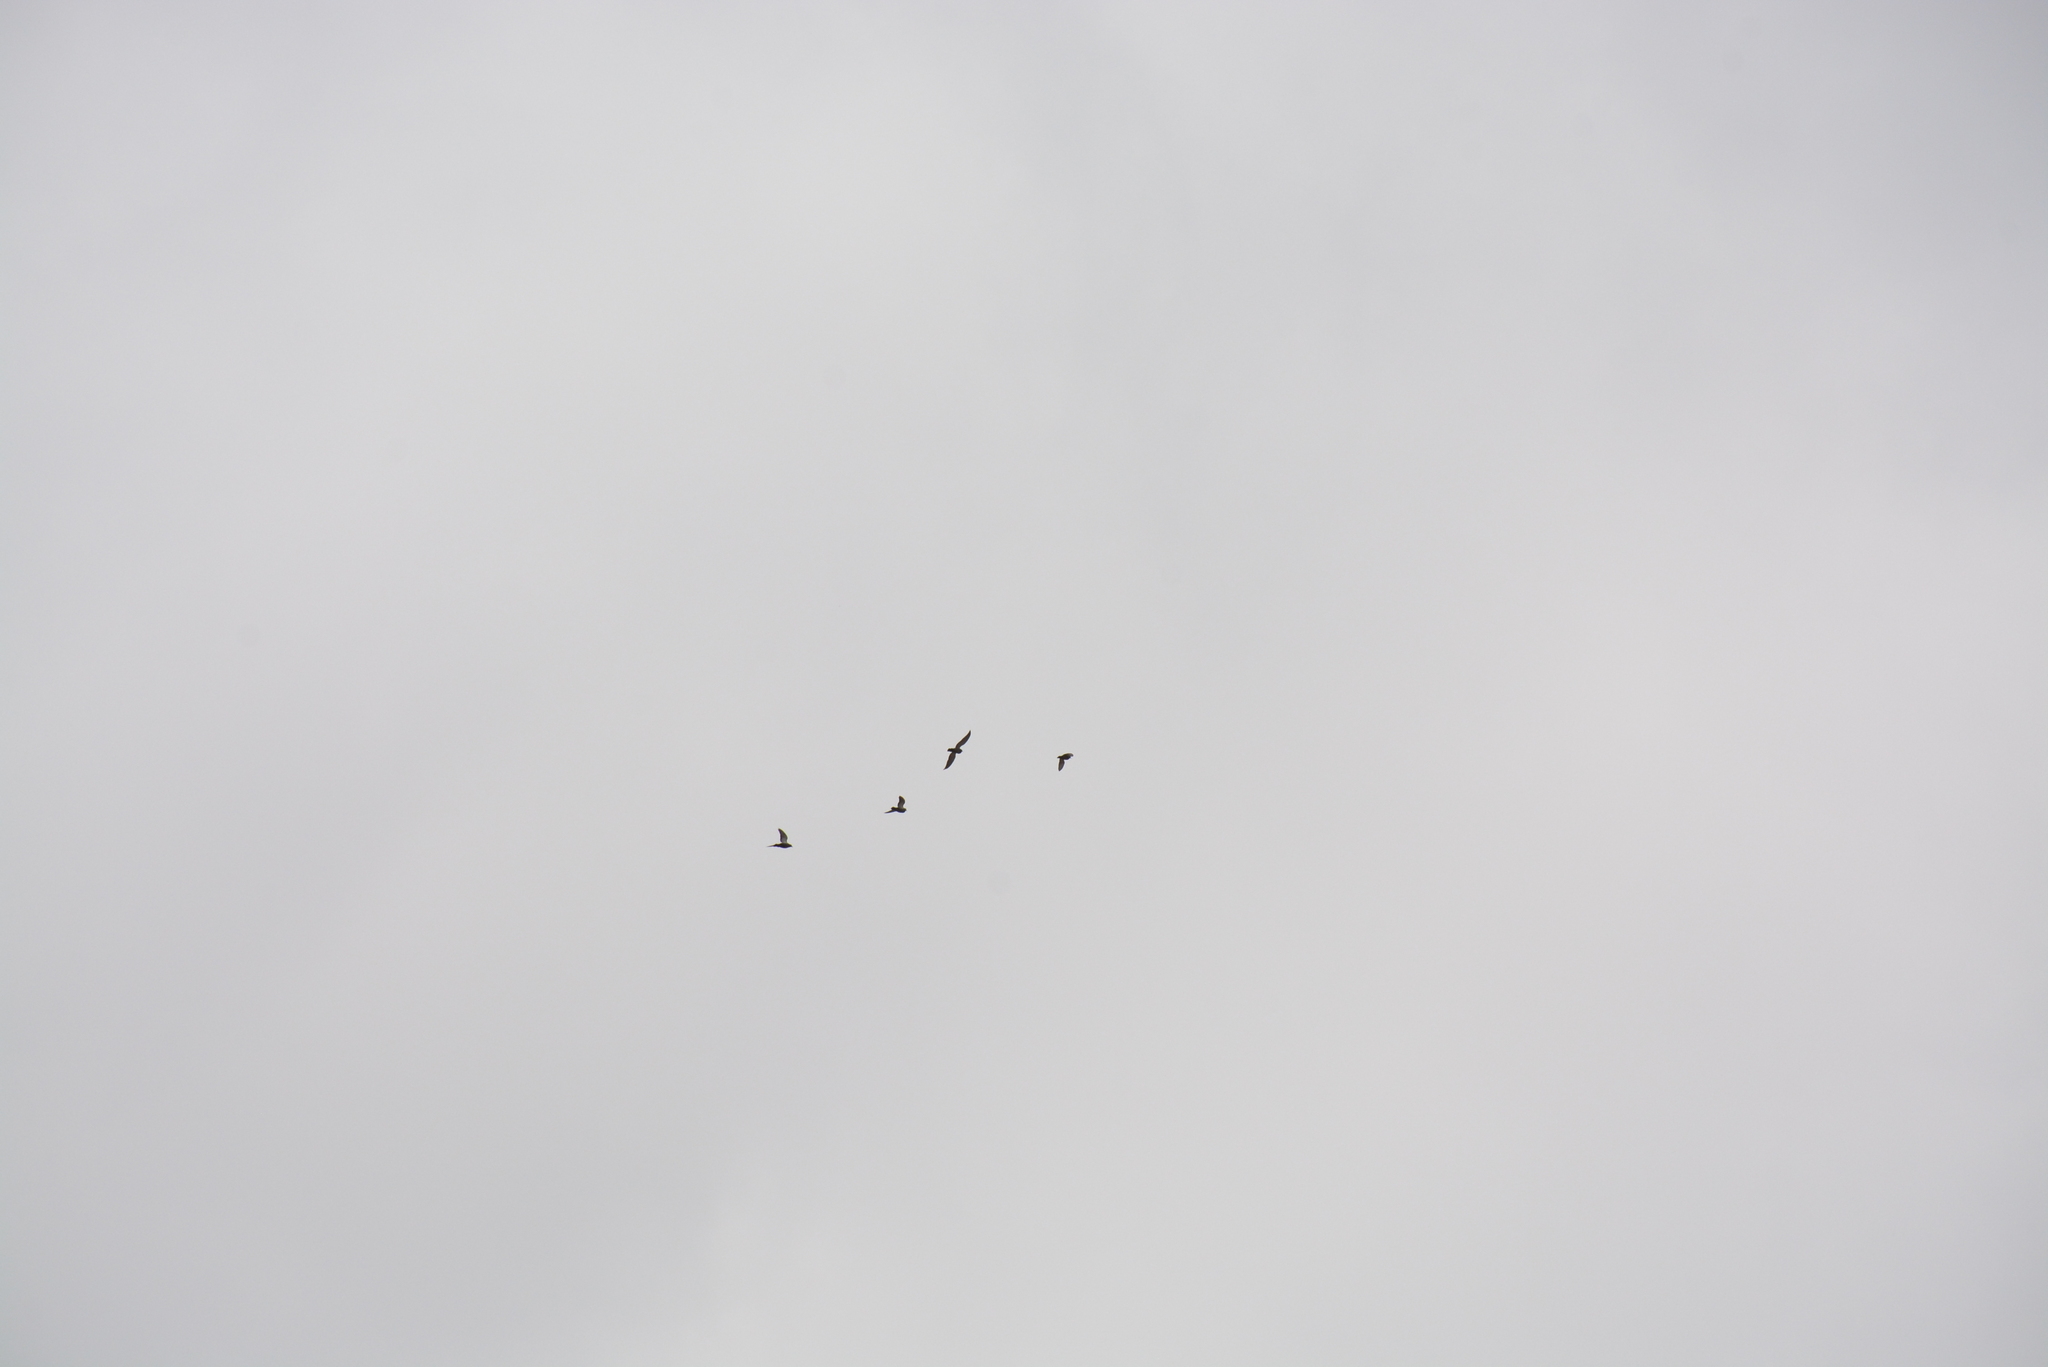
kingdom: Animalia
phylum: Chordata
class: Aves
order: Columbiformes
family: Columbidae
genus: Columba
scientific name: Columba livia
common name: Rock pigeon
